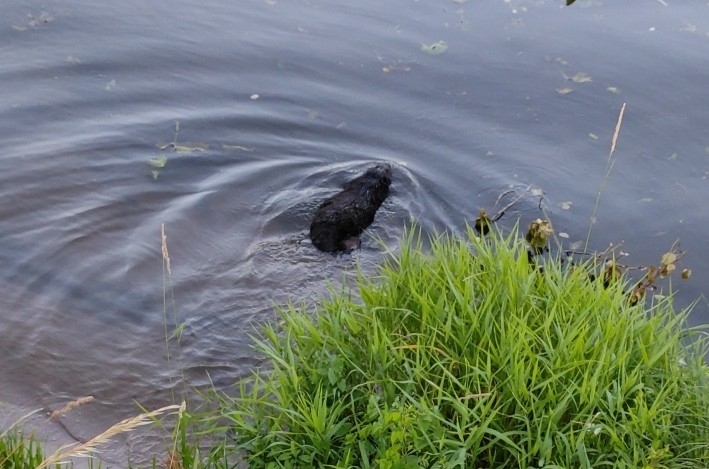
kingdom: Animalia
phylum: Chordata
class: Mammalia
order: Rodentia
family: Castoridae
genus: Castor
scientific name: Castor fiber
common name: Eurasian beaver
